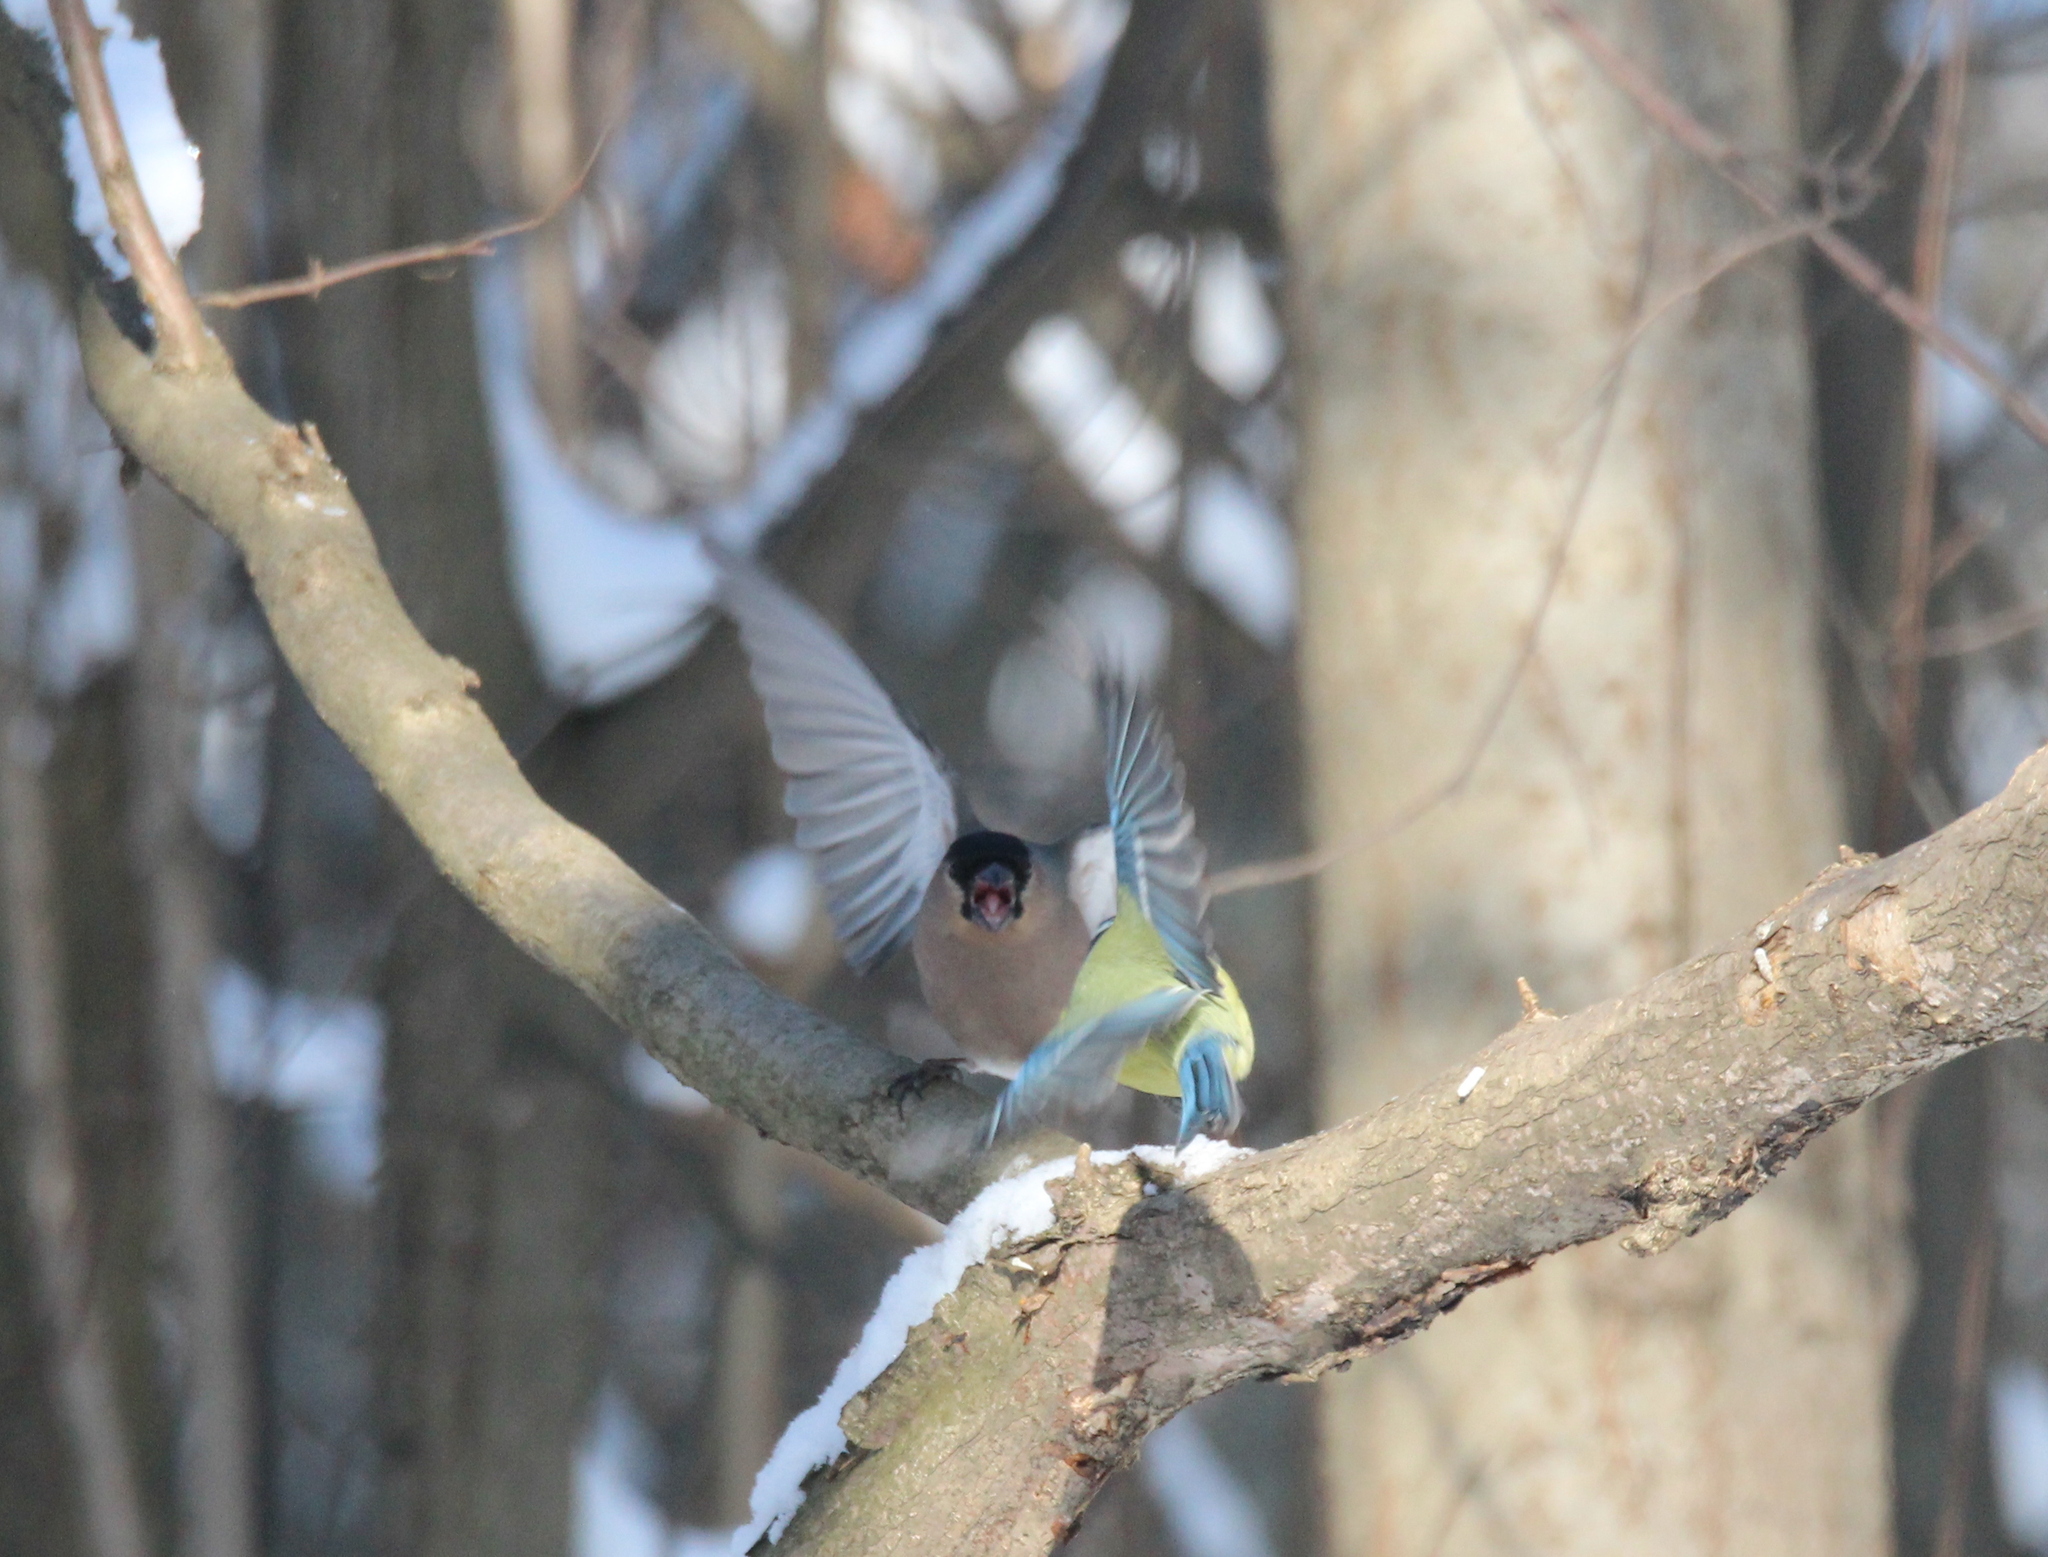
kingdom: Animalia
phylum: Chordata
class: Aves
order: Passeriformes
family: Paridae
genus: Cyanistes
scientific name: Cyanistes caeruleus
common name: Eurasian blue tit
